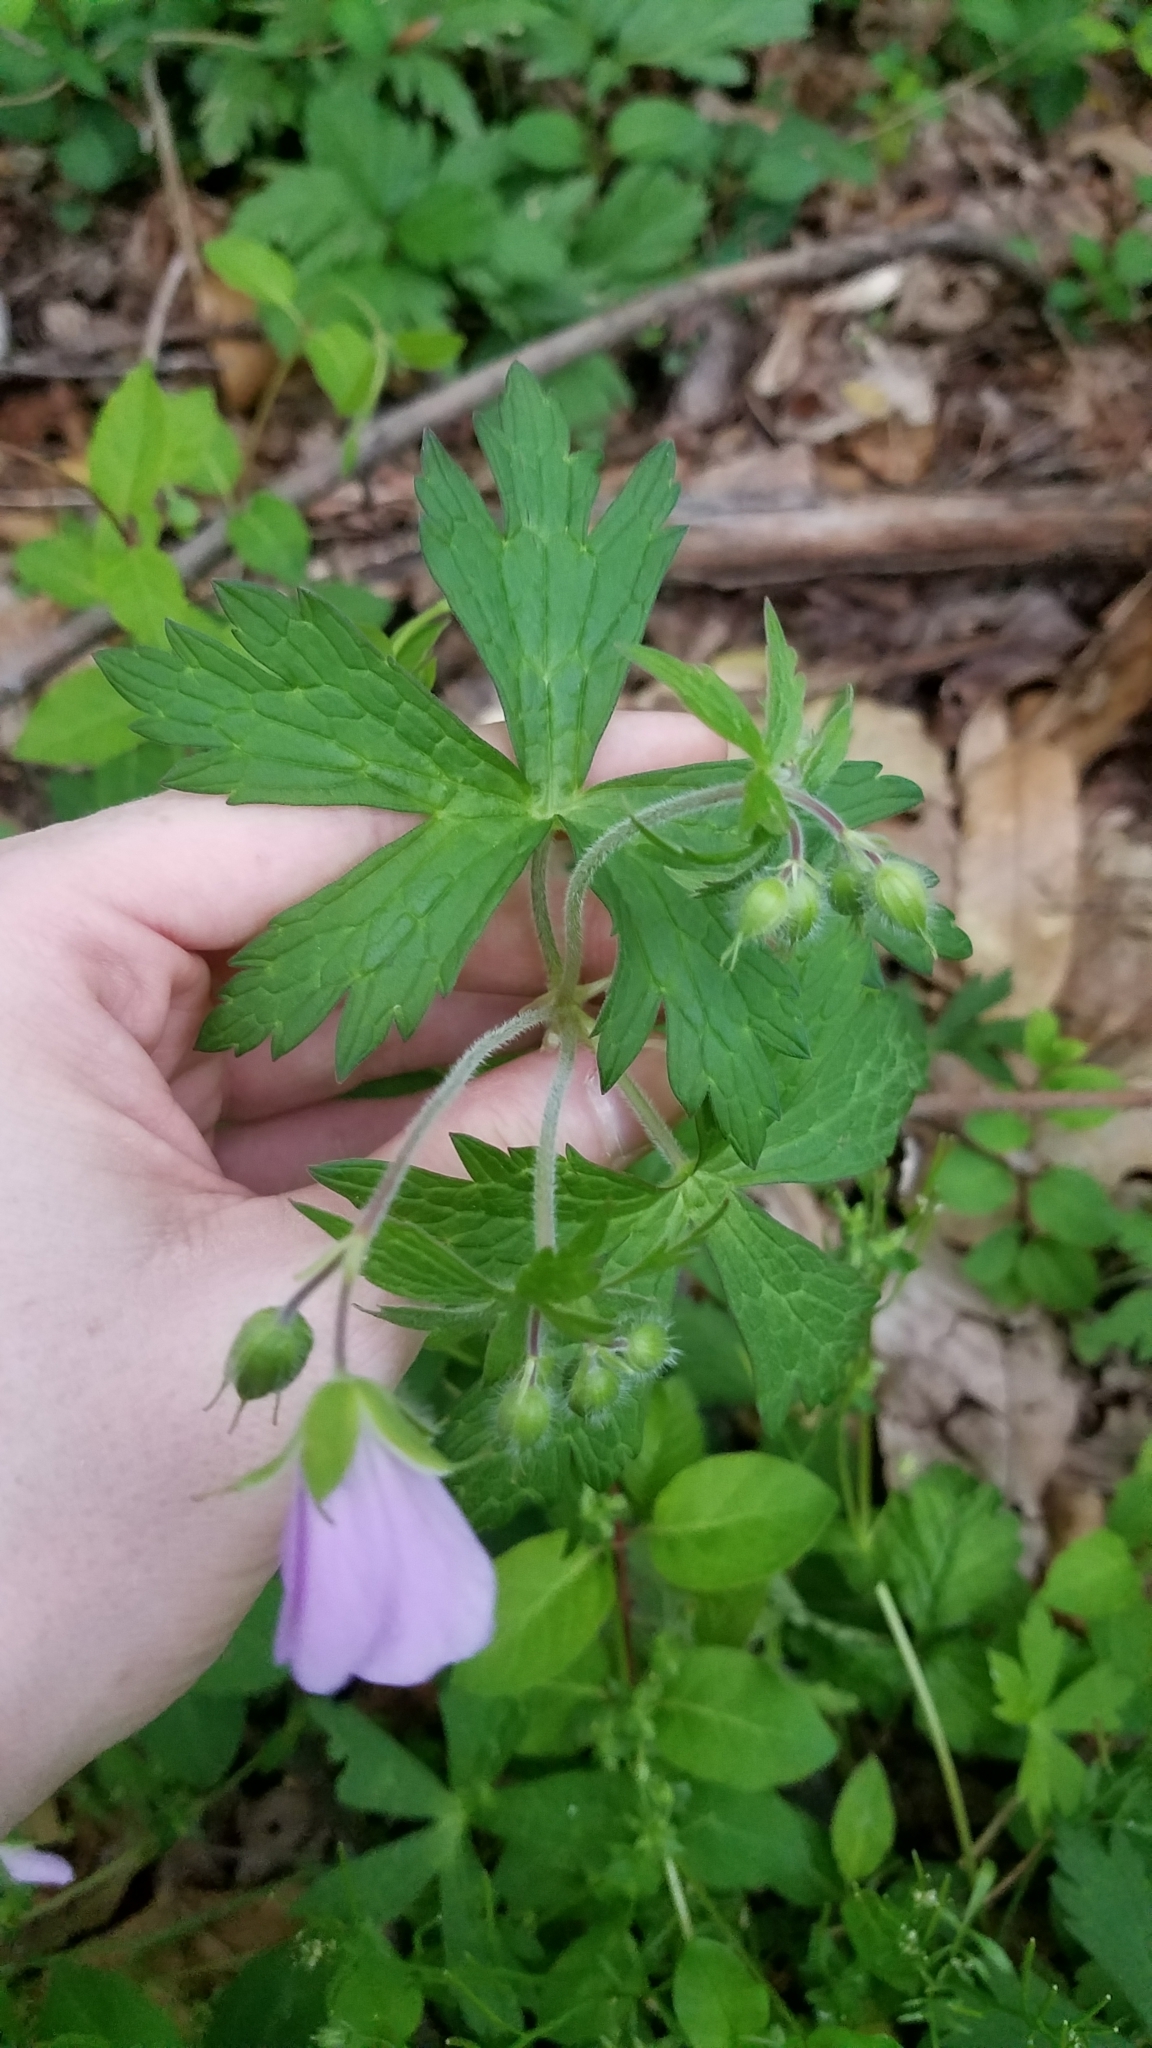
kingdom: Plantae
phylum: Tracheophyta
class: Magnoliopsida
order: Geraniales
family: Geraniaceae
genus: Geranium
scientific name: Geranium maculatum
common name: Spotted geranium
